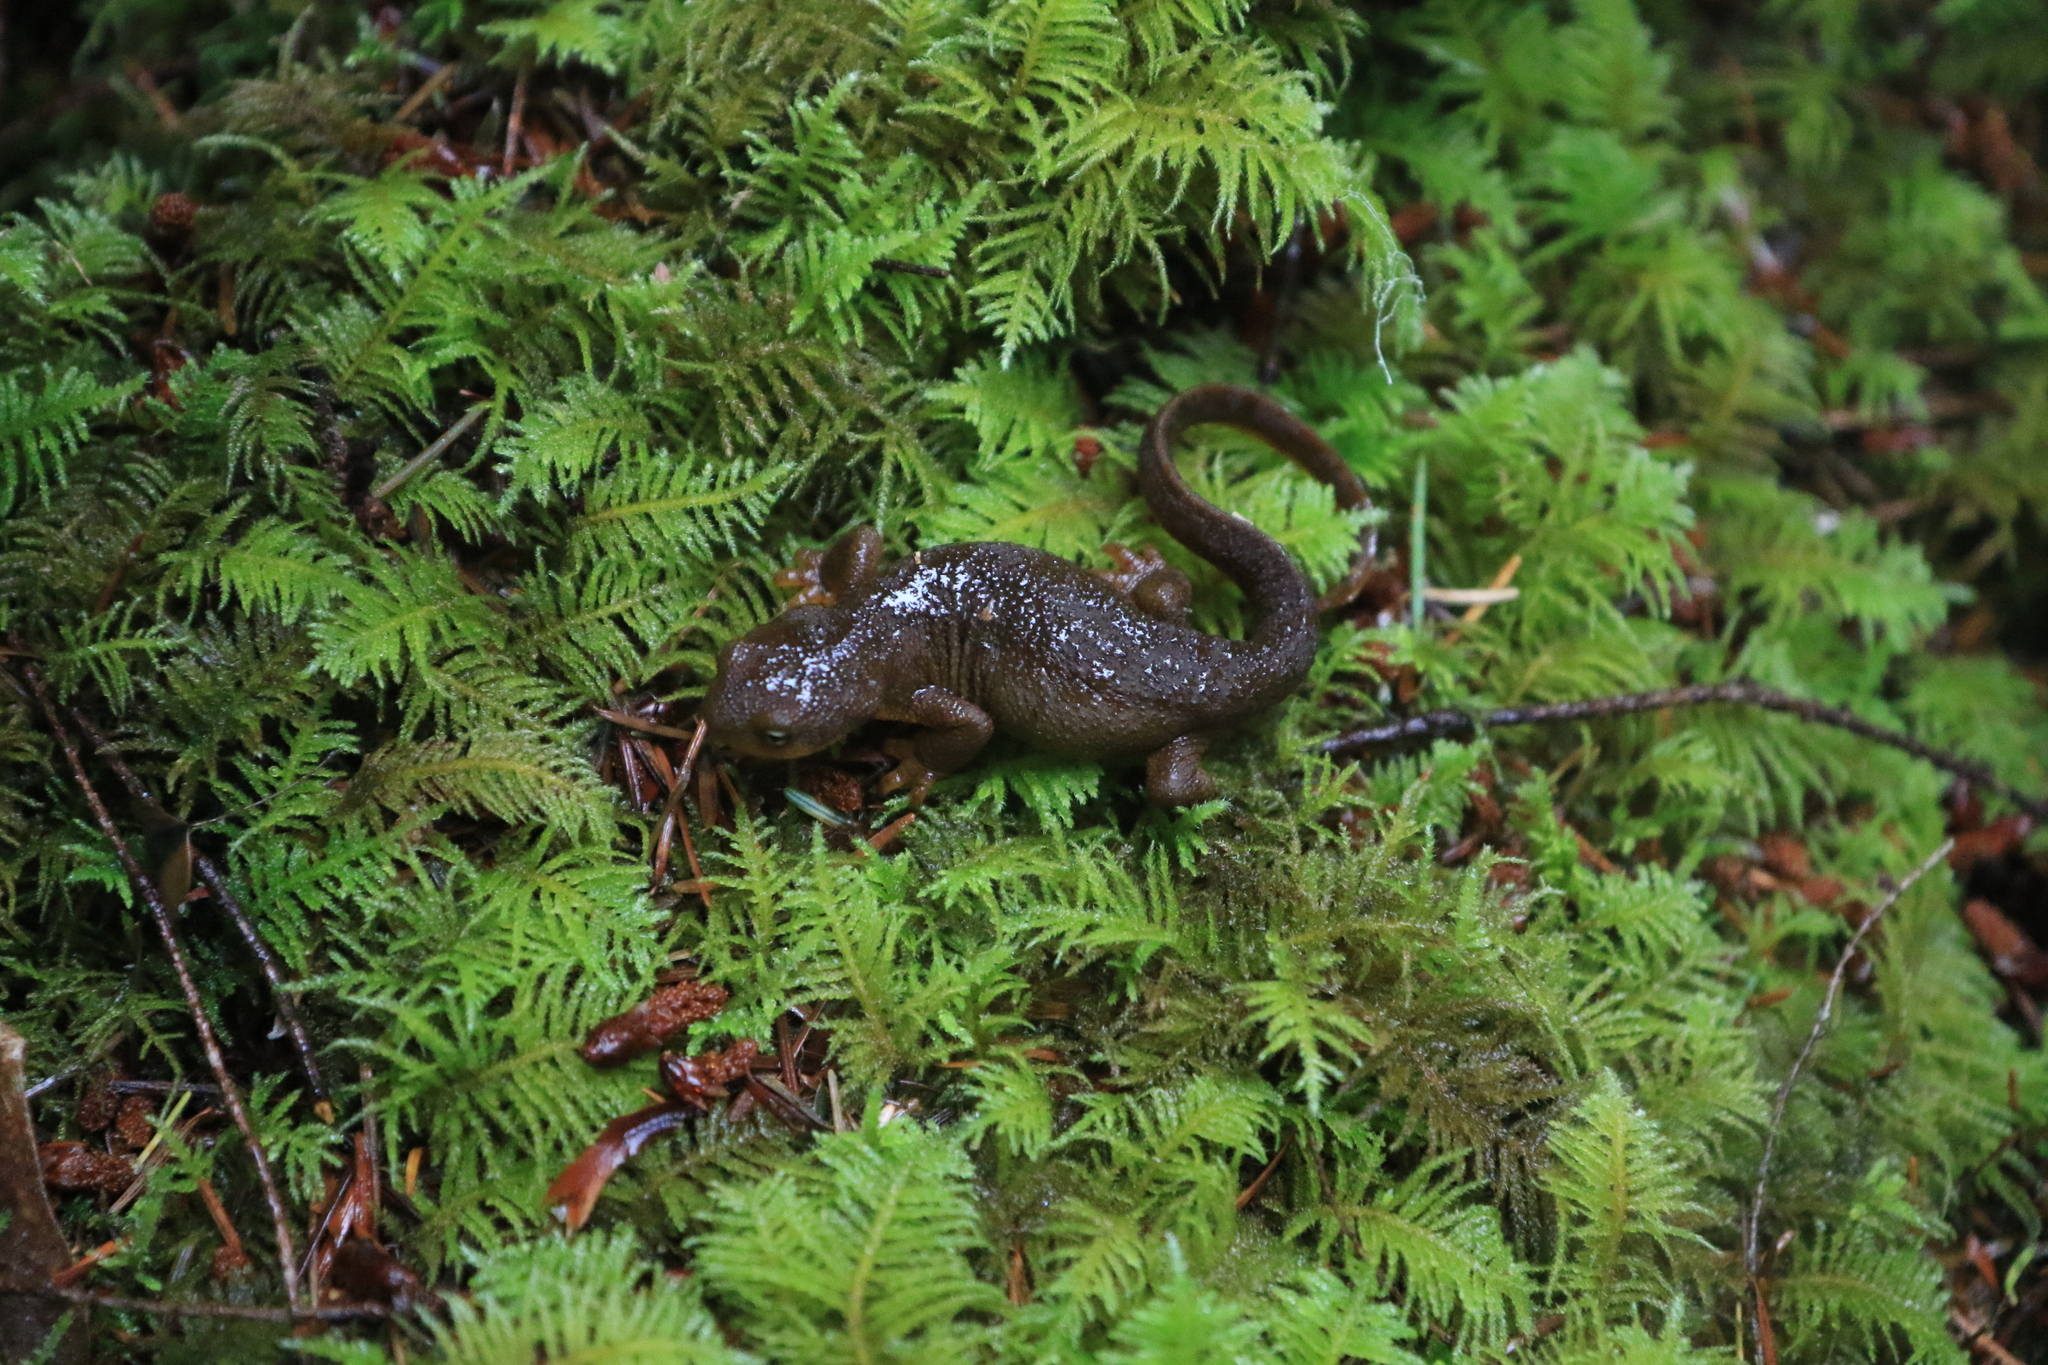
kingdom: Animalia
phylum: Chordata
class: Amphibia
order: Caudata
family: Salamandridae
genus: Taricha
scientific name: Taricha granulosa
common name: Roughskin newt
